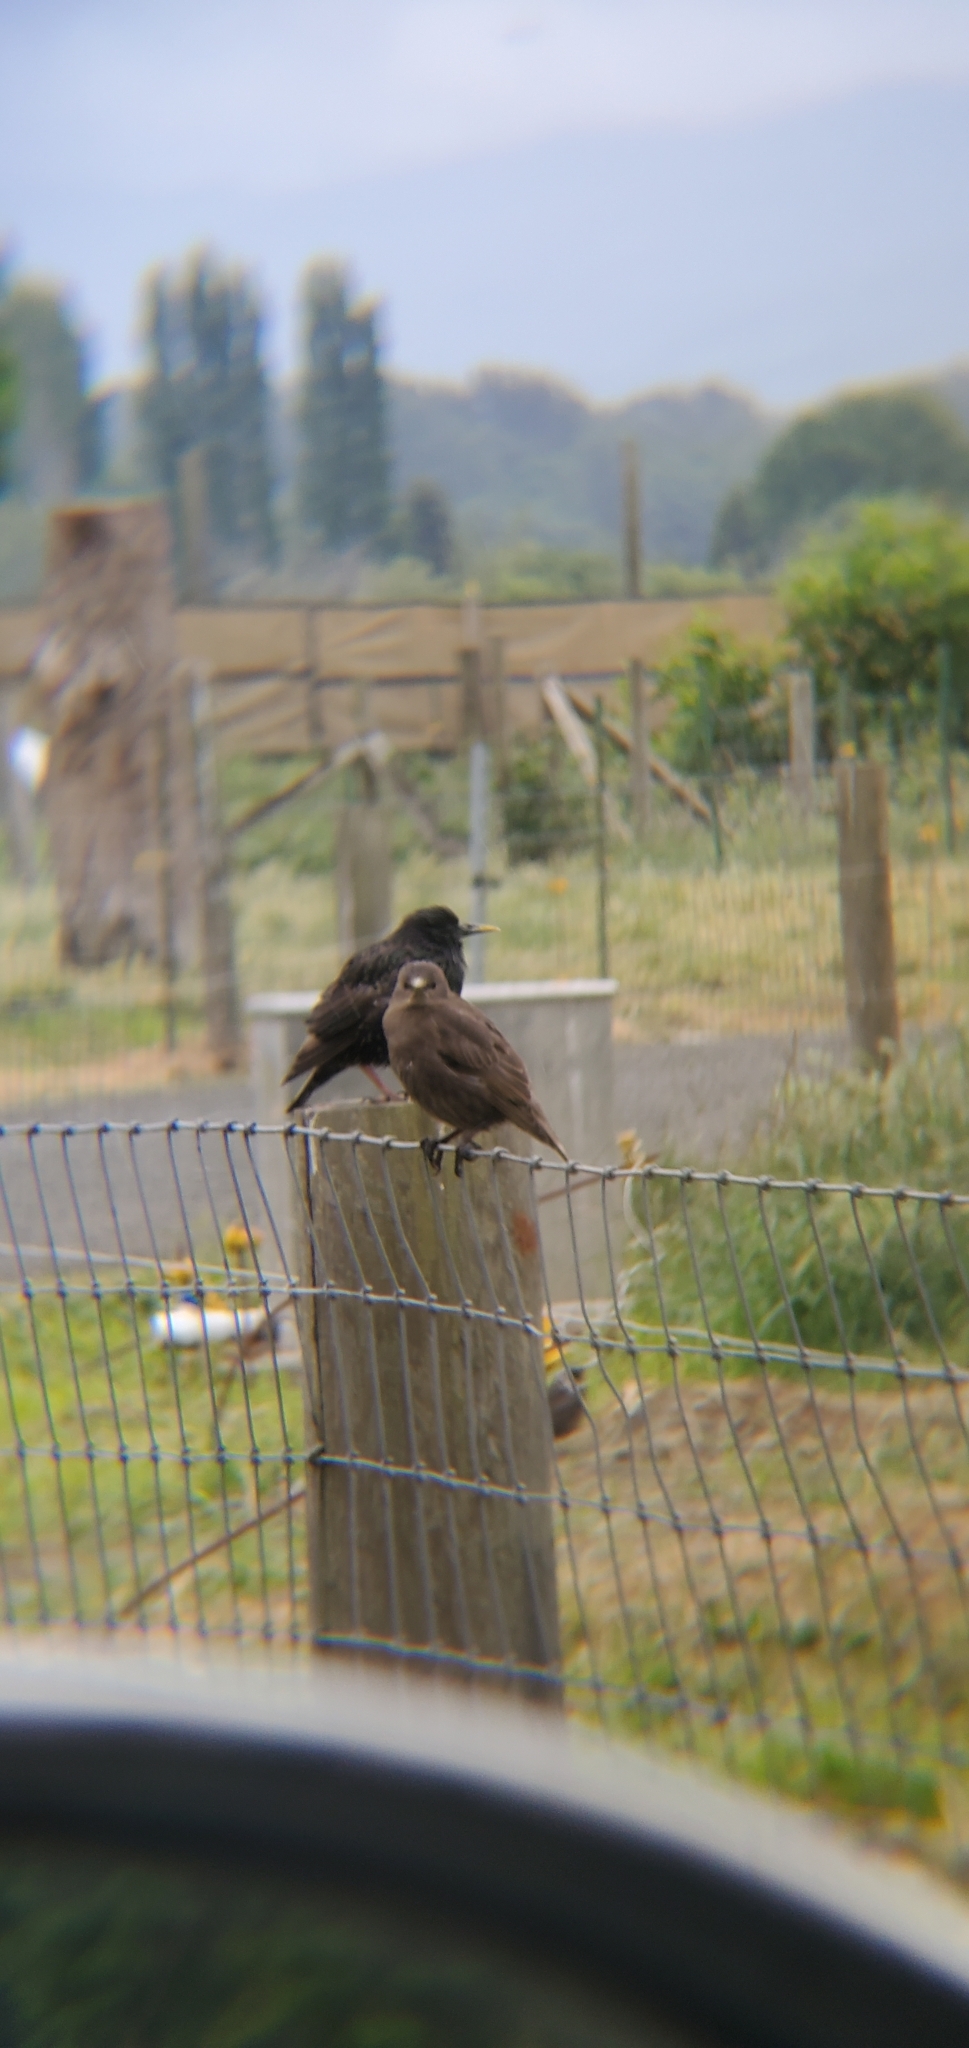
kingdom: Animalia
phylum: Chordata
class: Aves
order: Passeriformes
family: Sturnidae
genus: Sturnus
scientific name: Sturnus vulgaris
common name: Common starling
